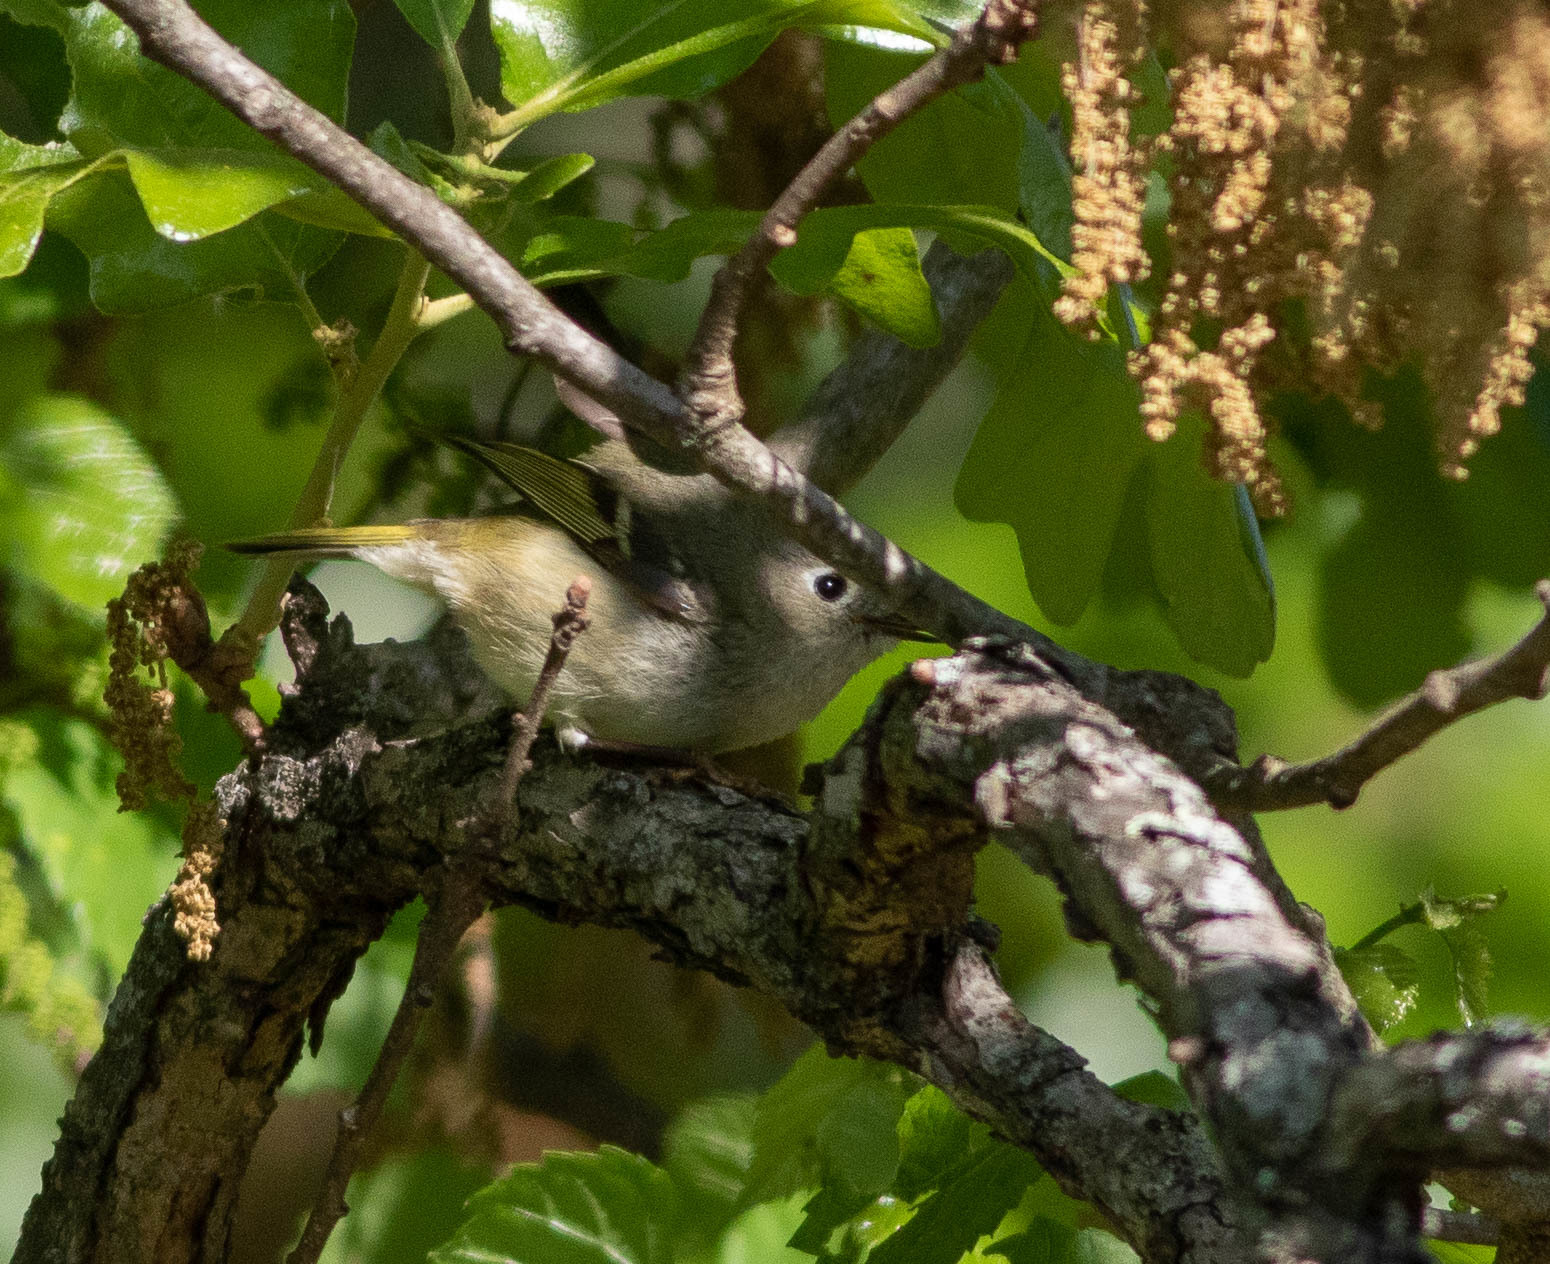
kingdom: Animalia
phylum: Chordata
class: Aves
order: Passeriformes
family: Regulidae
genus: Regulus
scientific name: Regulus calendula
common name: Ruby-crowned kinglet
